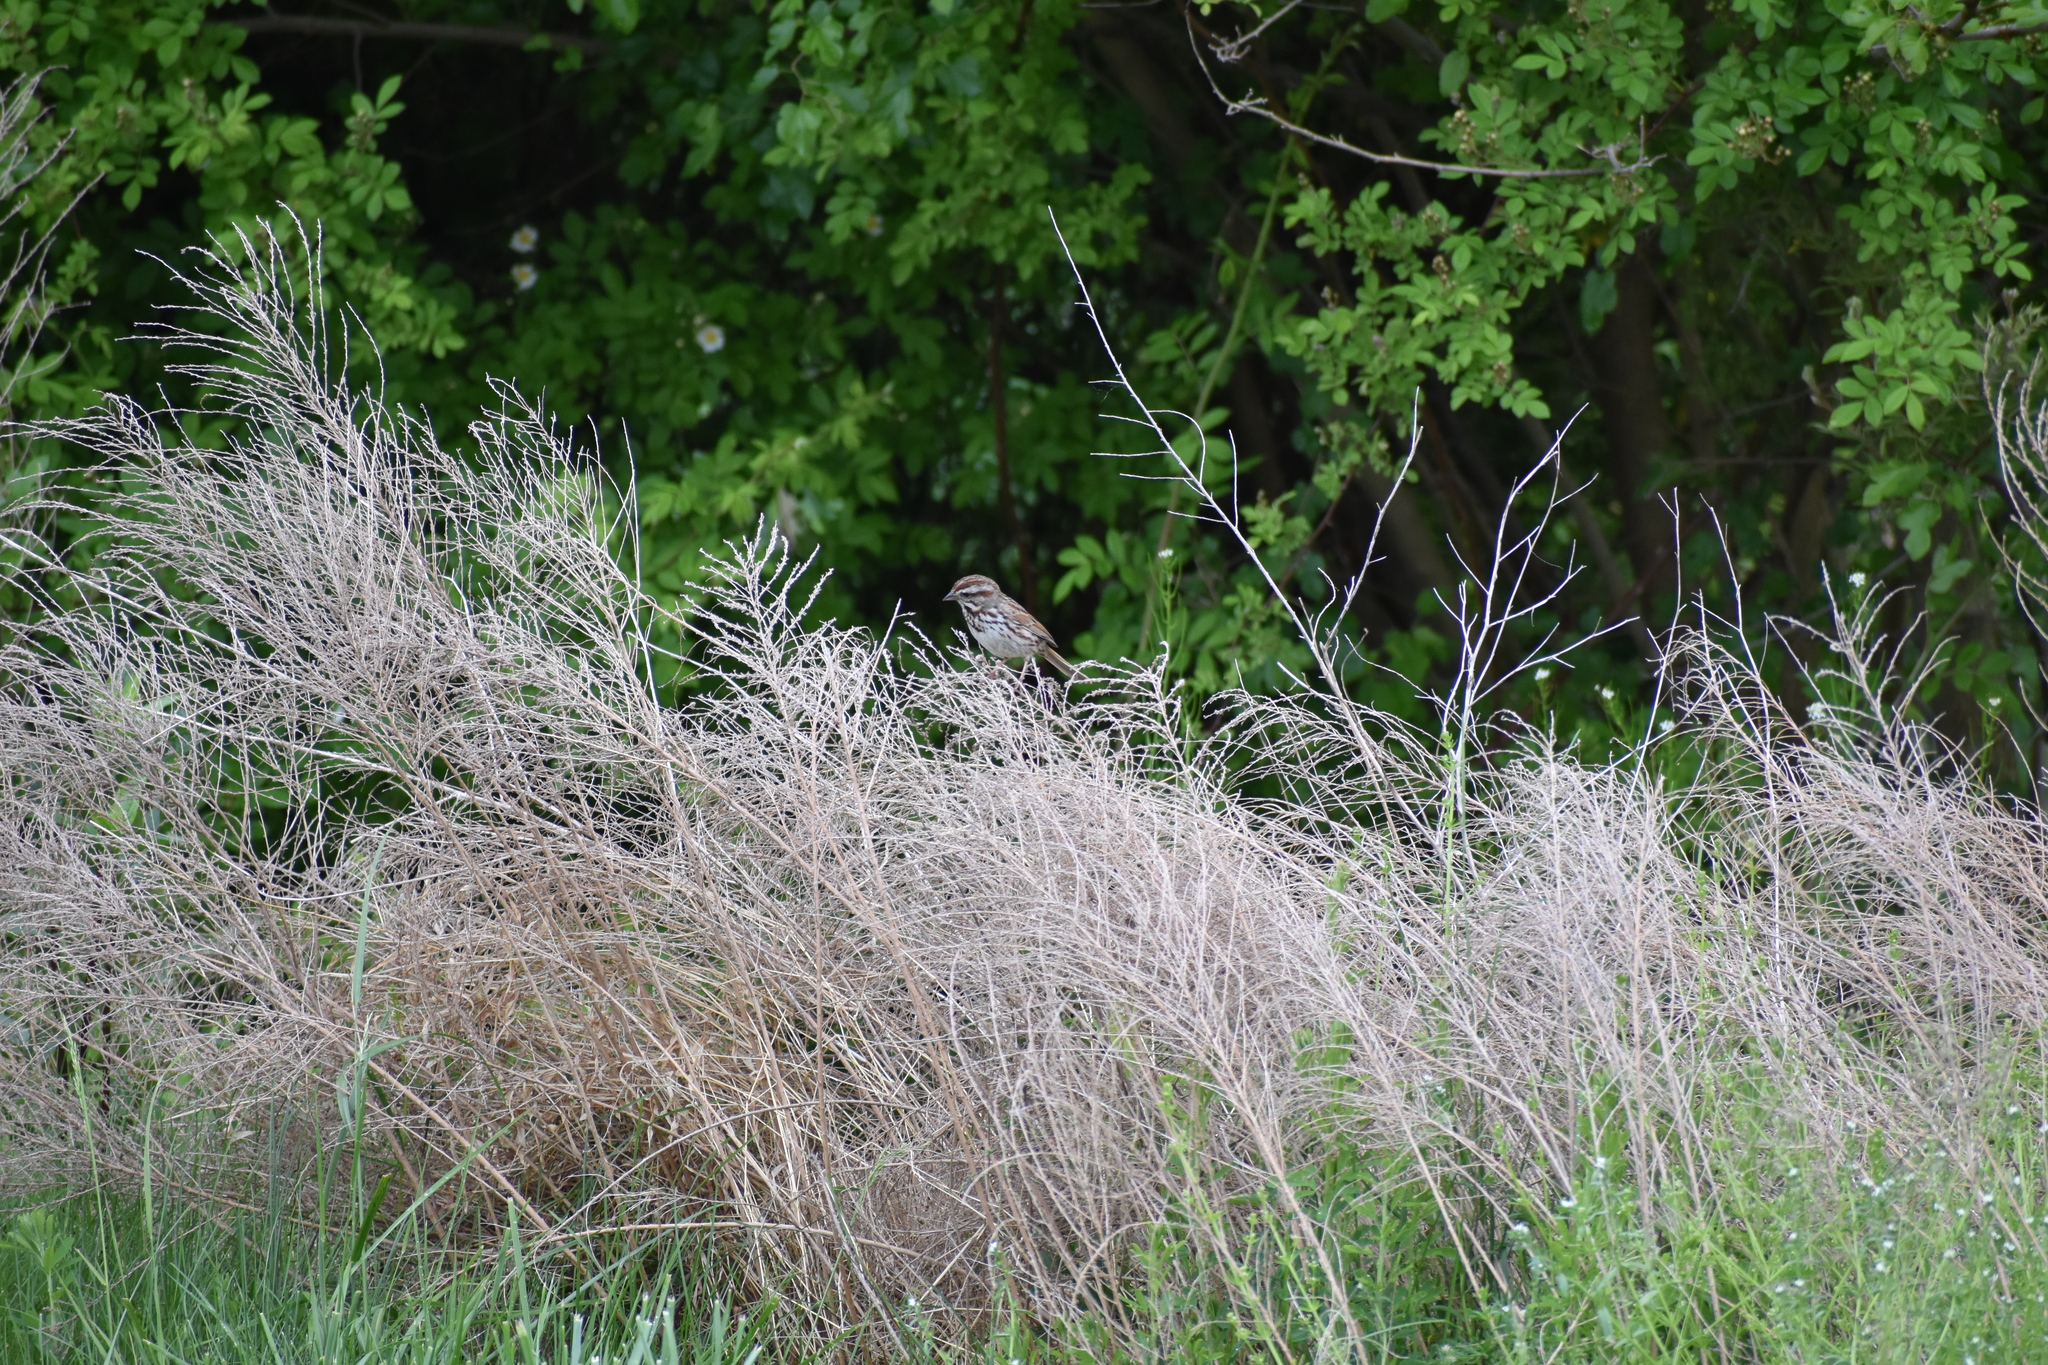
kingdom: Animalia
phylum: Chordata
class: Aves
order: Passeriformes
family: Passerellidae
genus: Melospiza
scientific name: Melospiza melodia
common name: Song sparrow
